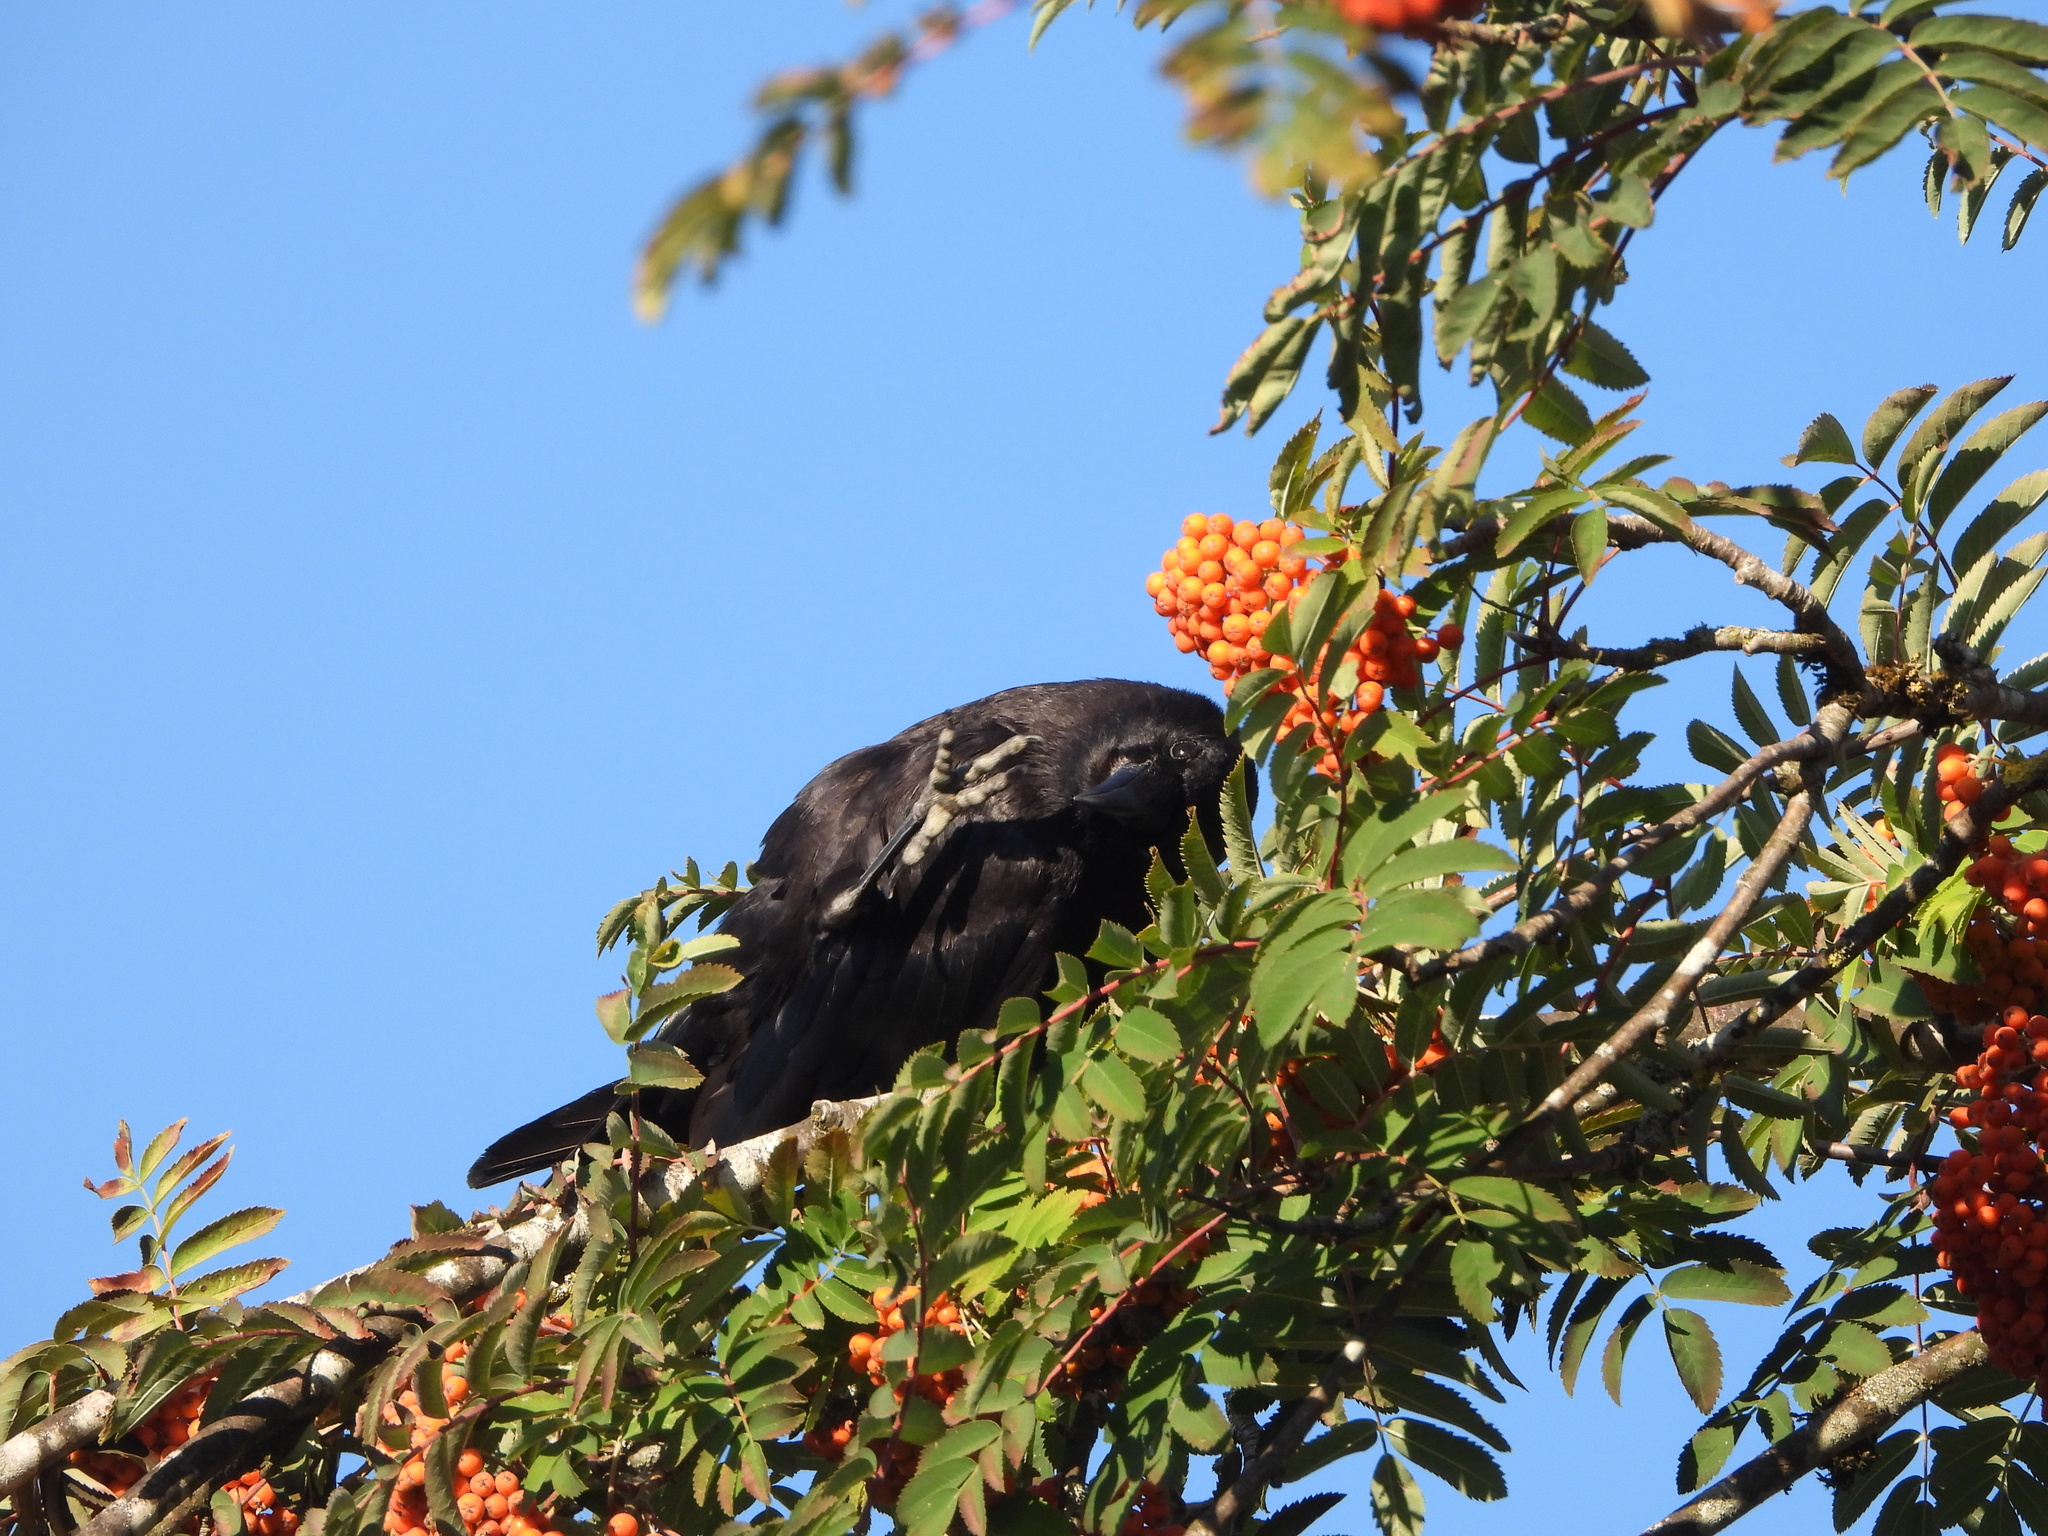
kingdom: Animalia
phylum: Chordata
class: Aves
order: Passeriformes
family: Corvidae
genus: Corvus
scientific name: Corvus brachyrhynchos
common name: American crow
